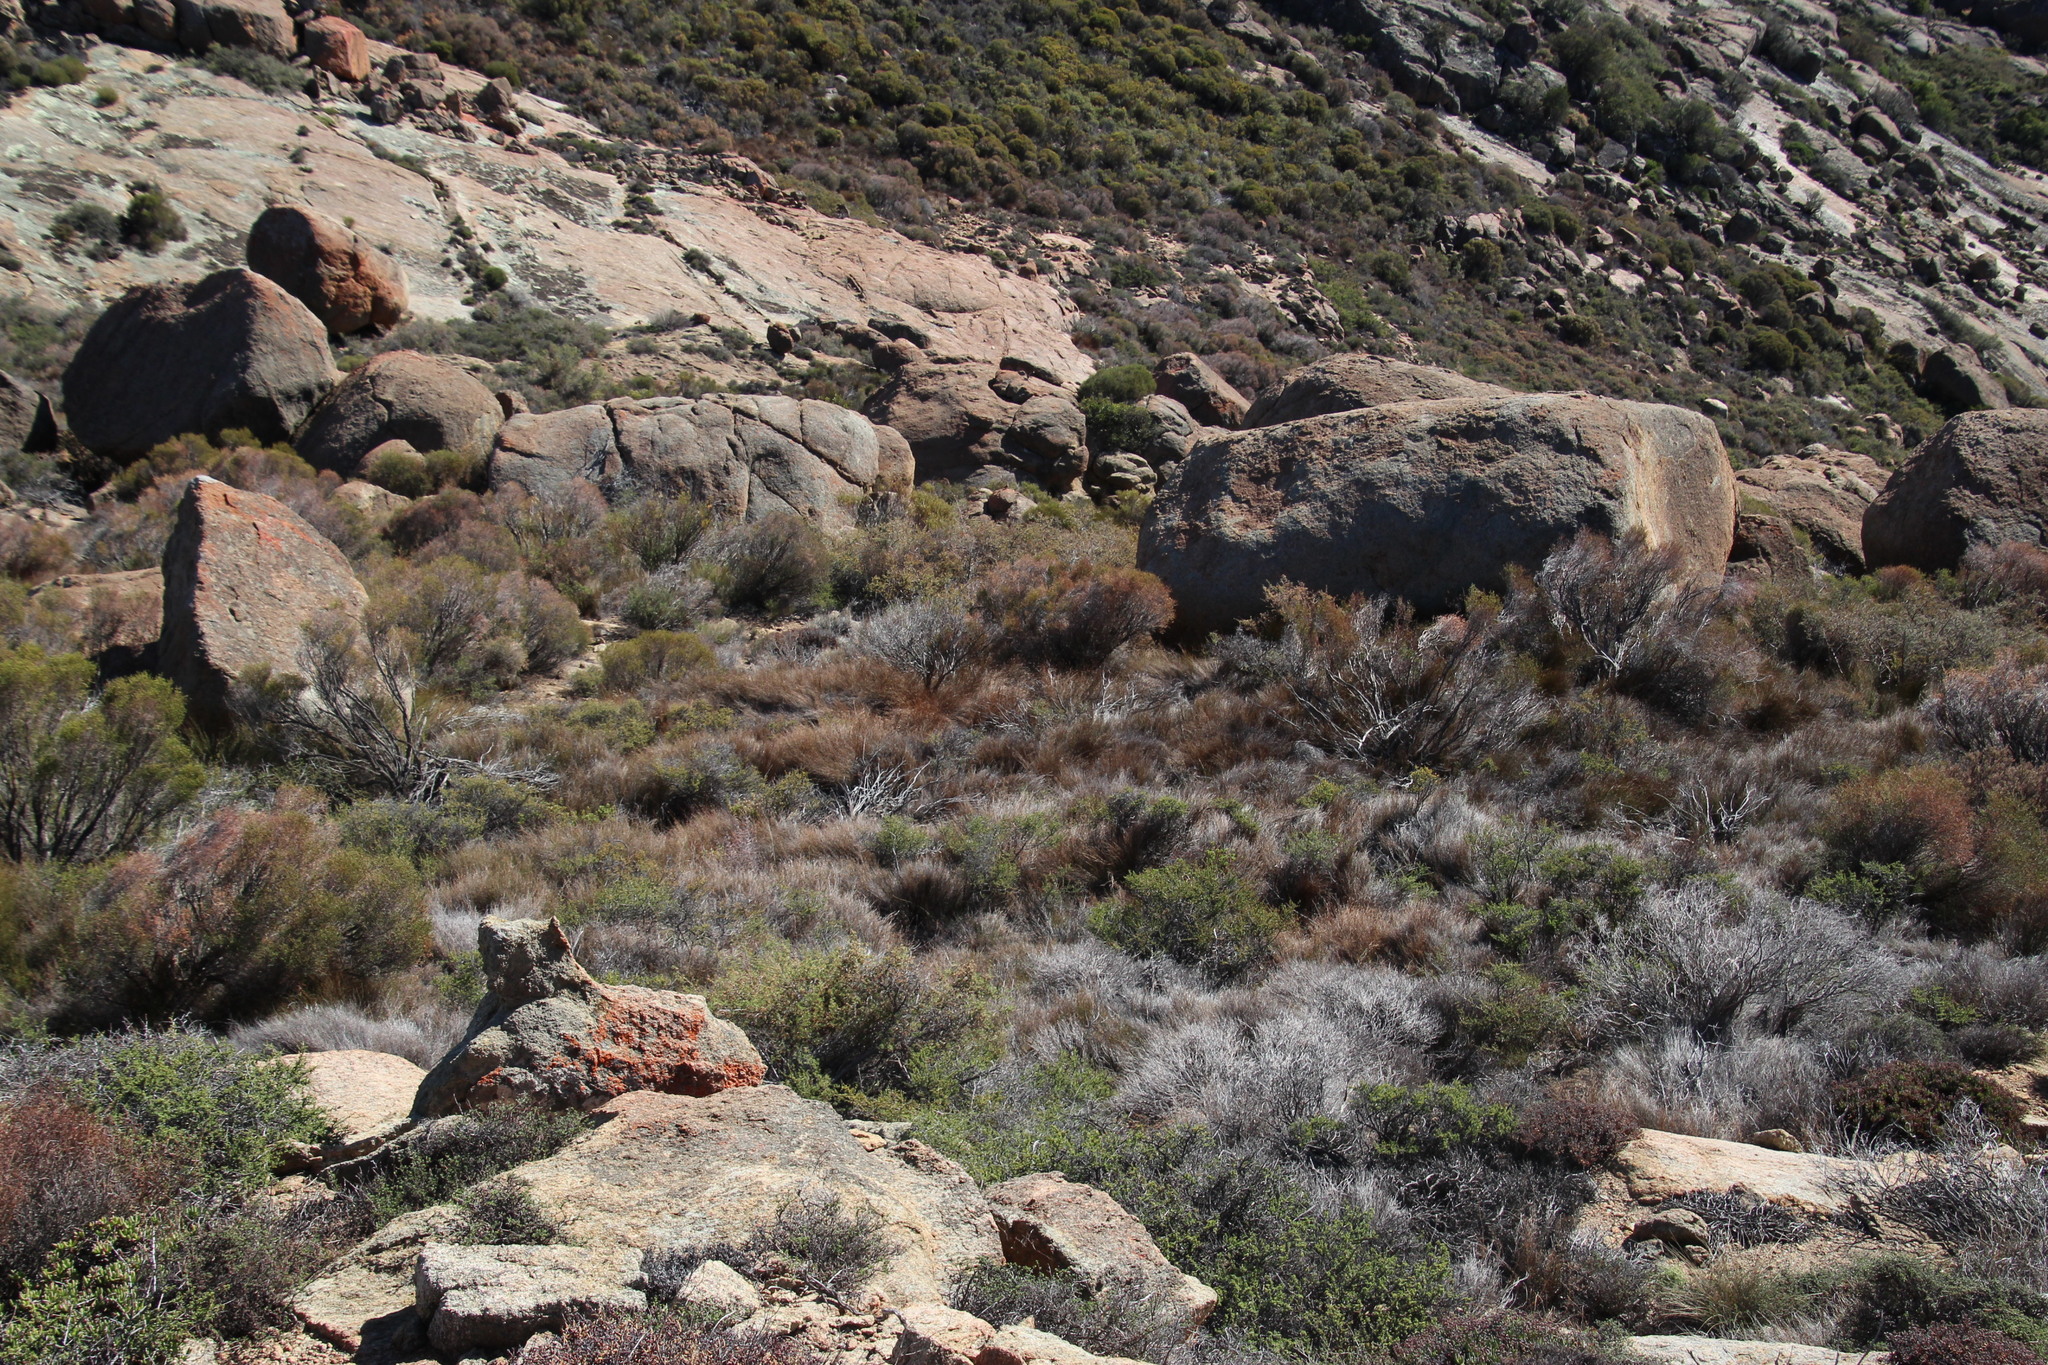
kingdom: Plantae
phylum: Tracheophyta
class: Liliopsida
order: Poales
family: Restionaceae
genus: Restio
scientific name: Restio vilis
